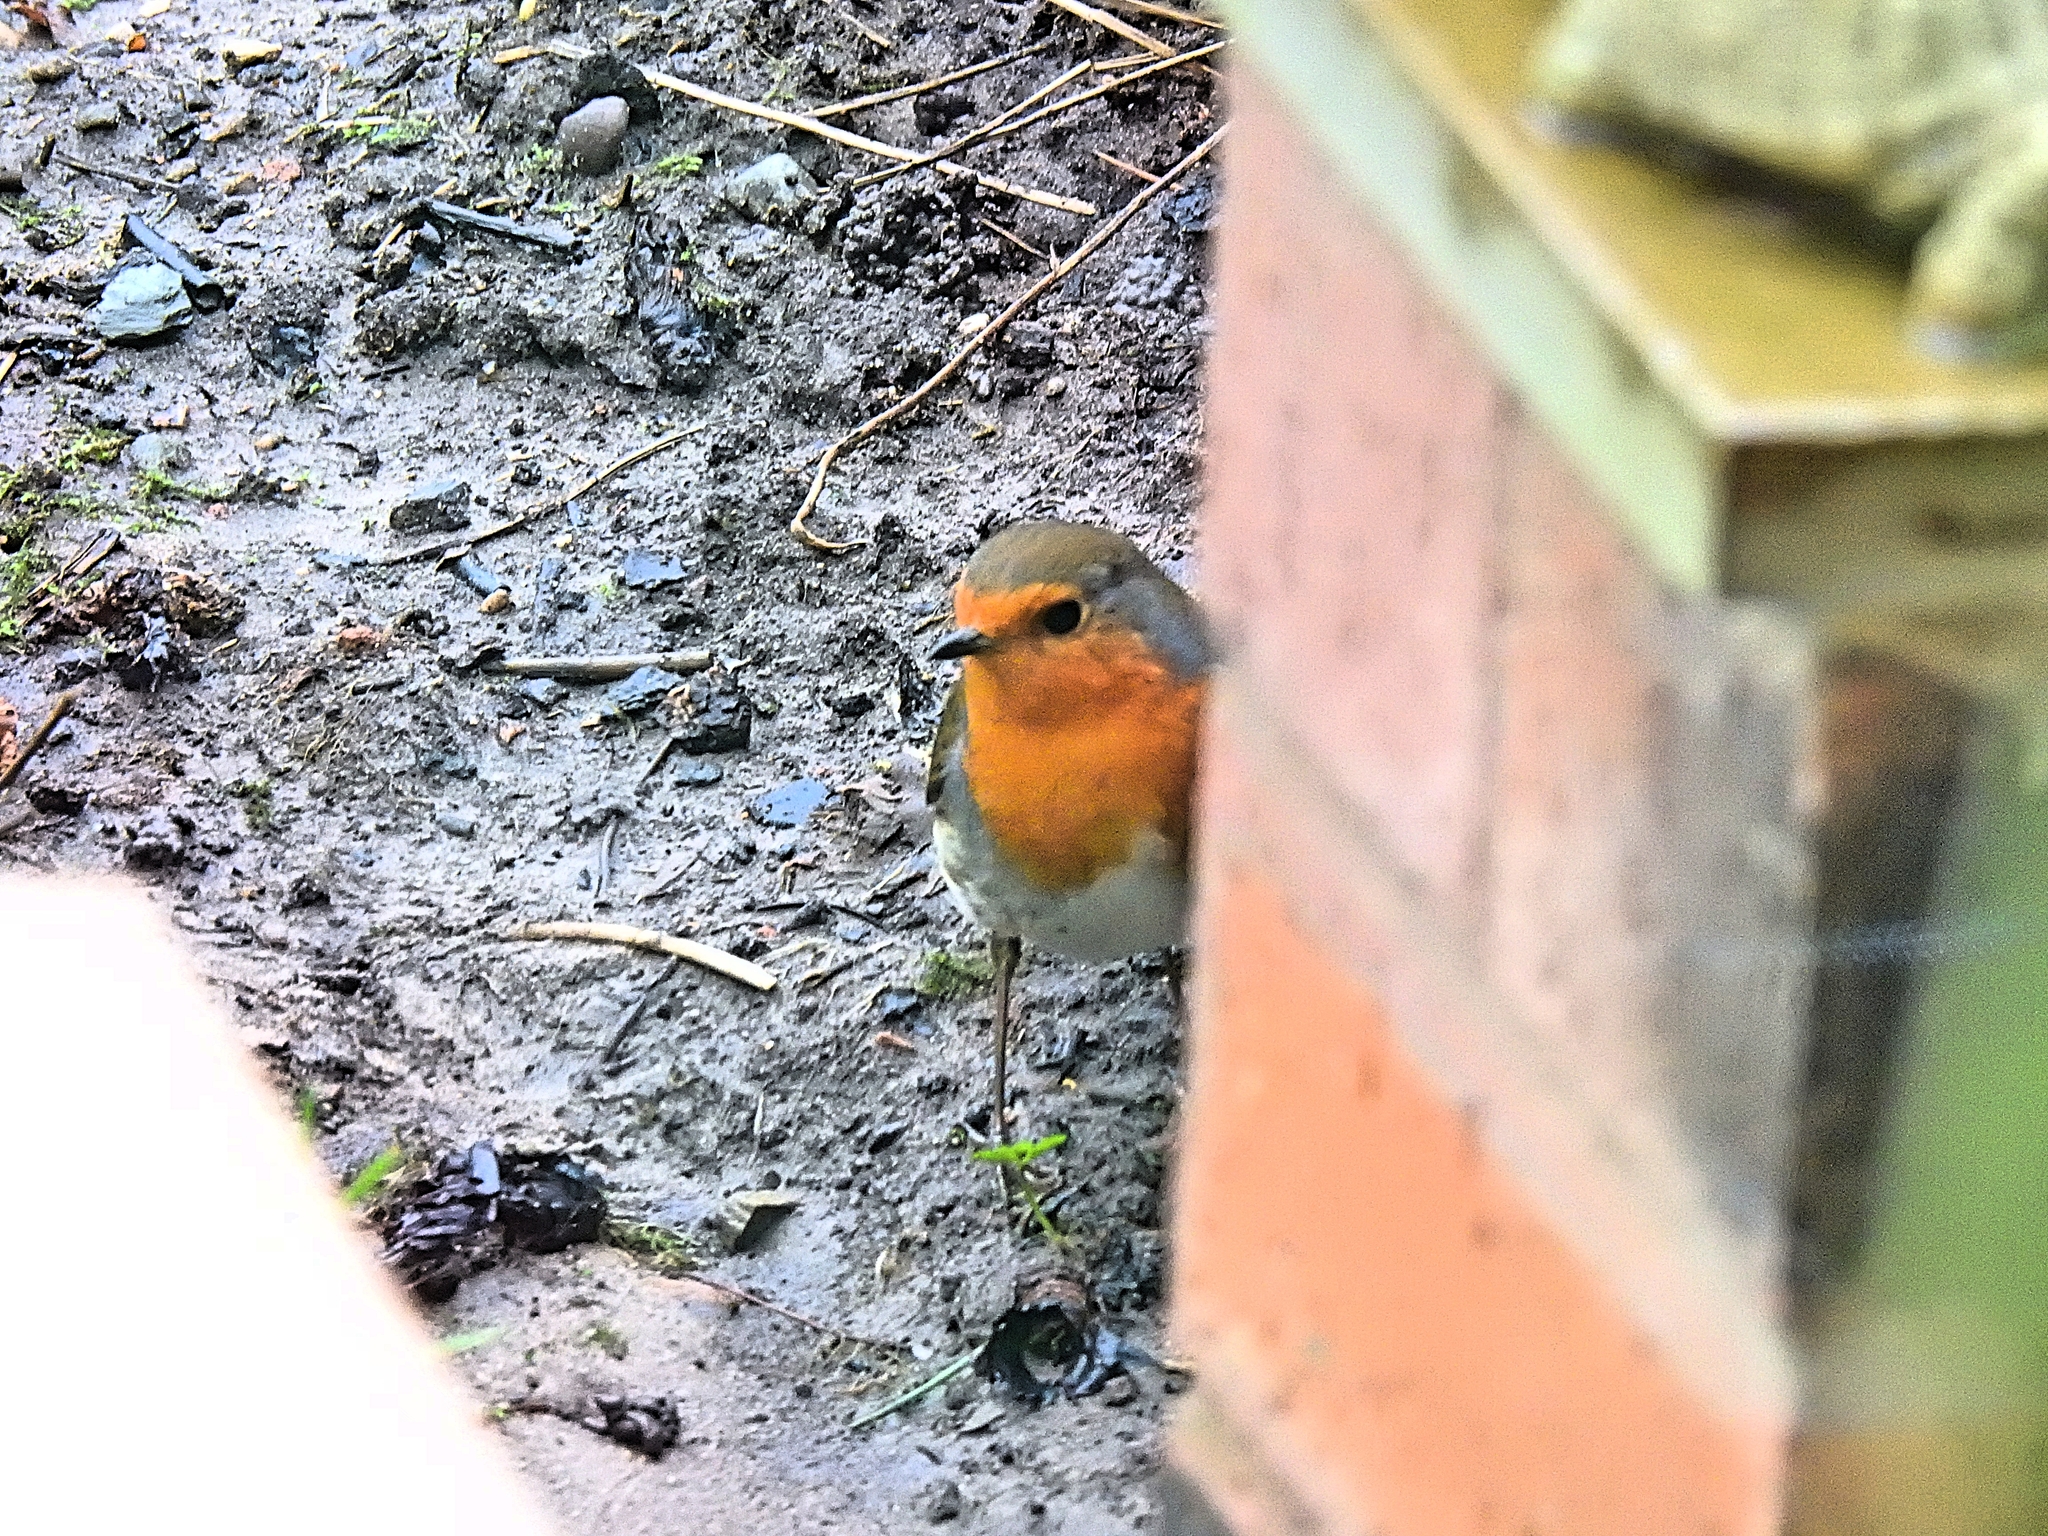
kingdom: Animalia
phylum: Chordata
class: Aves
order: Passeriformes
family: Muscicapidae
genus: Erithacus
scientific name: Erithacus rubecula
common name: European robin
